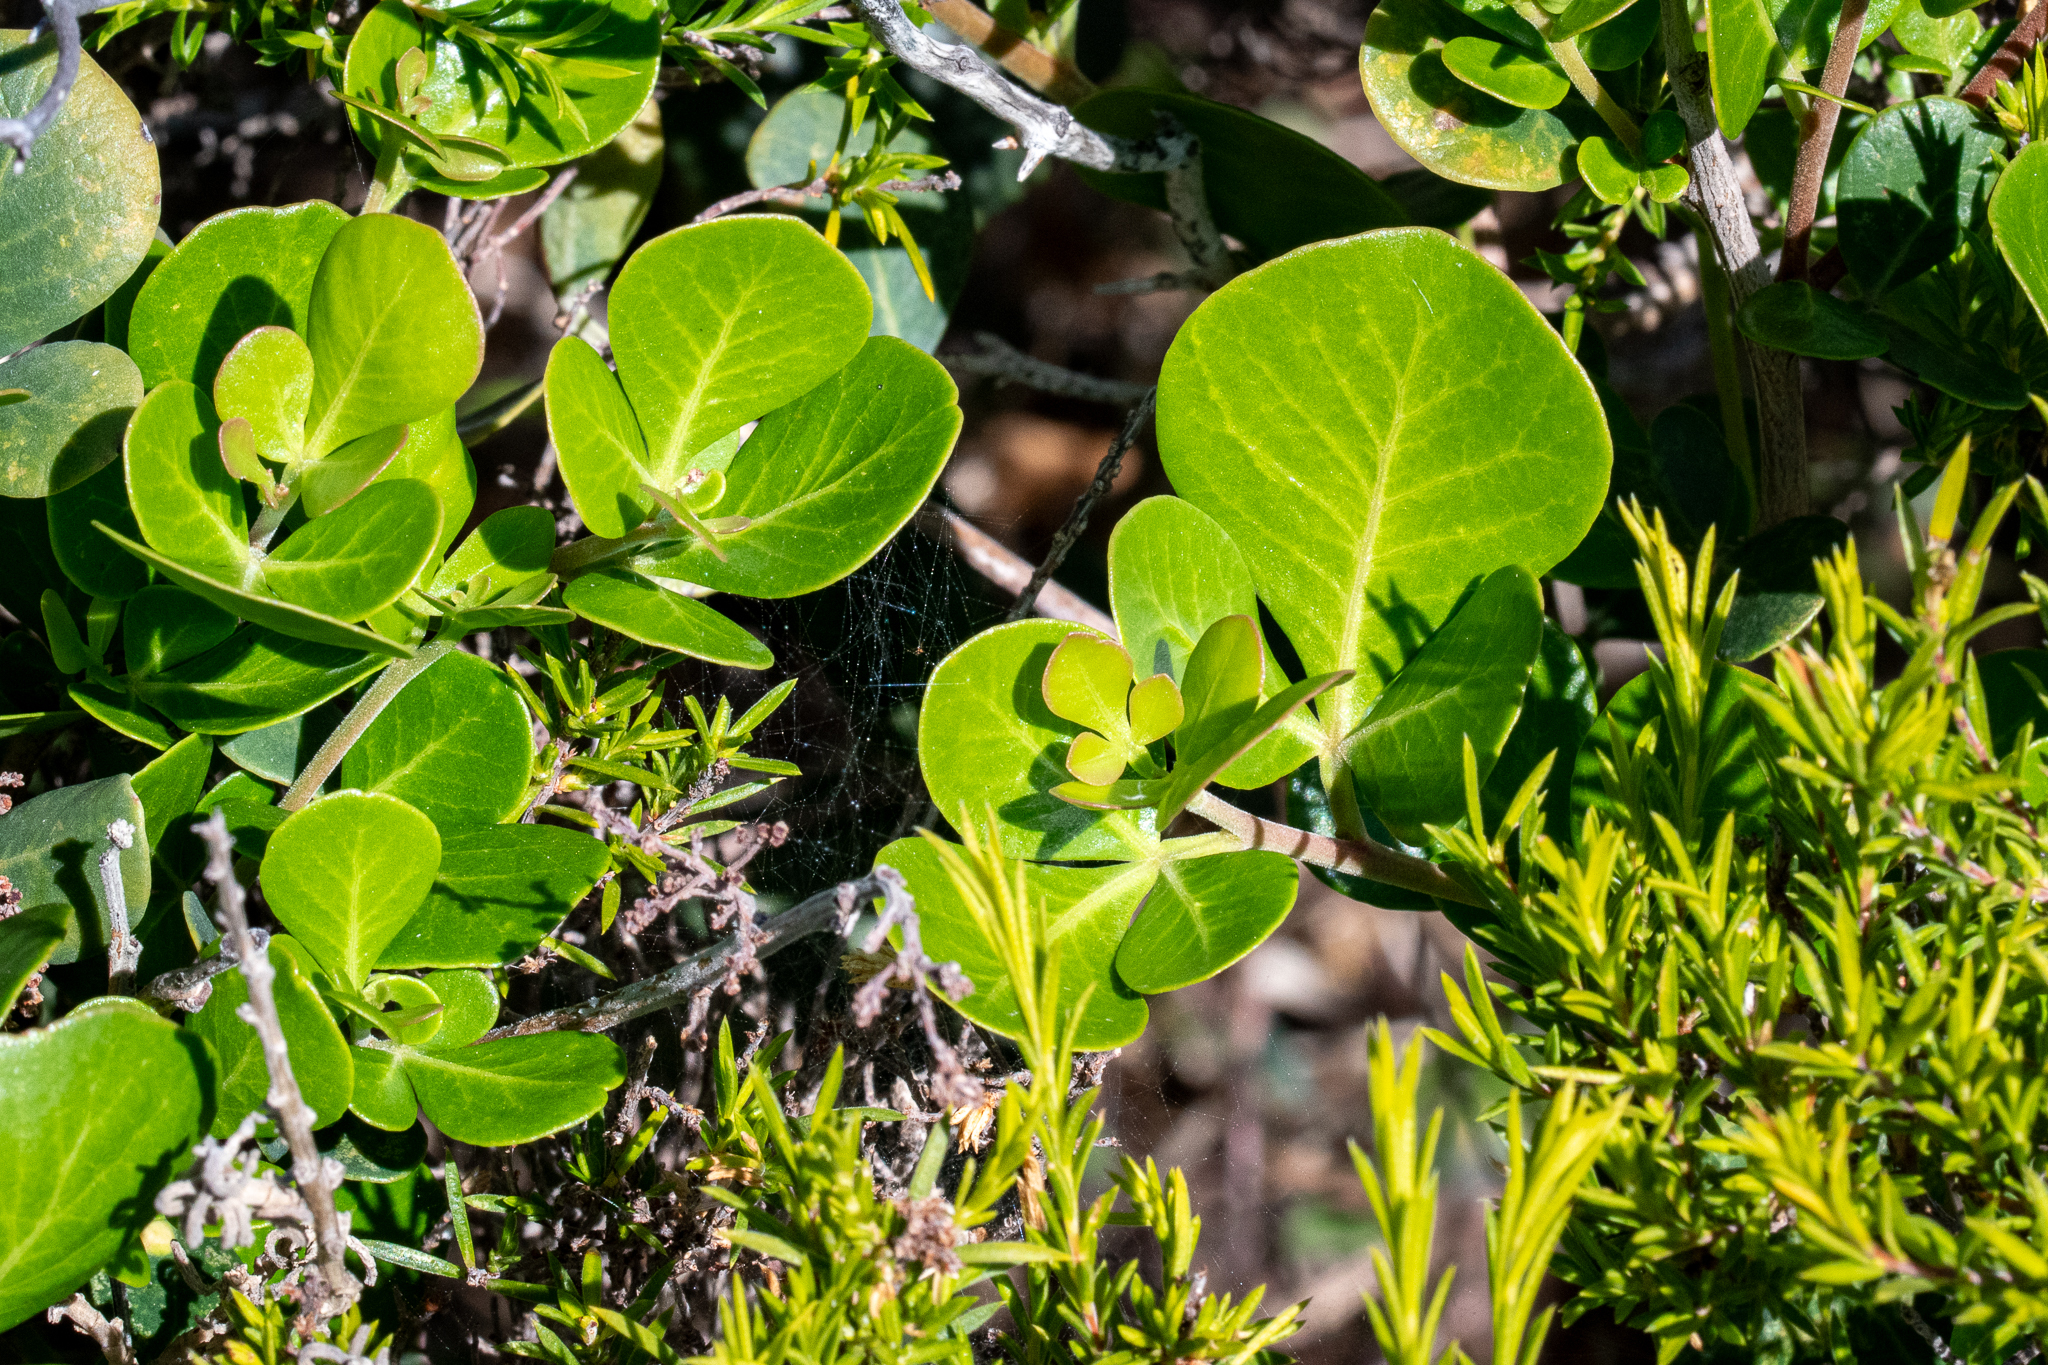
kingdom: Plantae
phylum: Tracheophyta
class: Magnoliopsida
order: Sapindales
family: Anacardiaceae
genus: Searsia
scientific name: Searsia lucida
